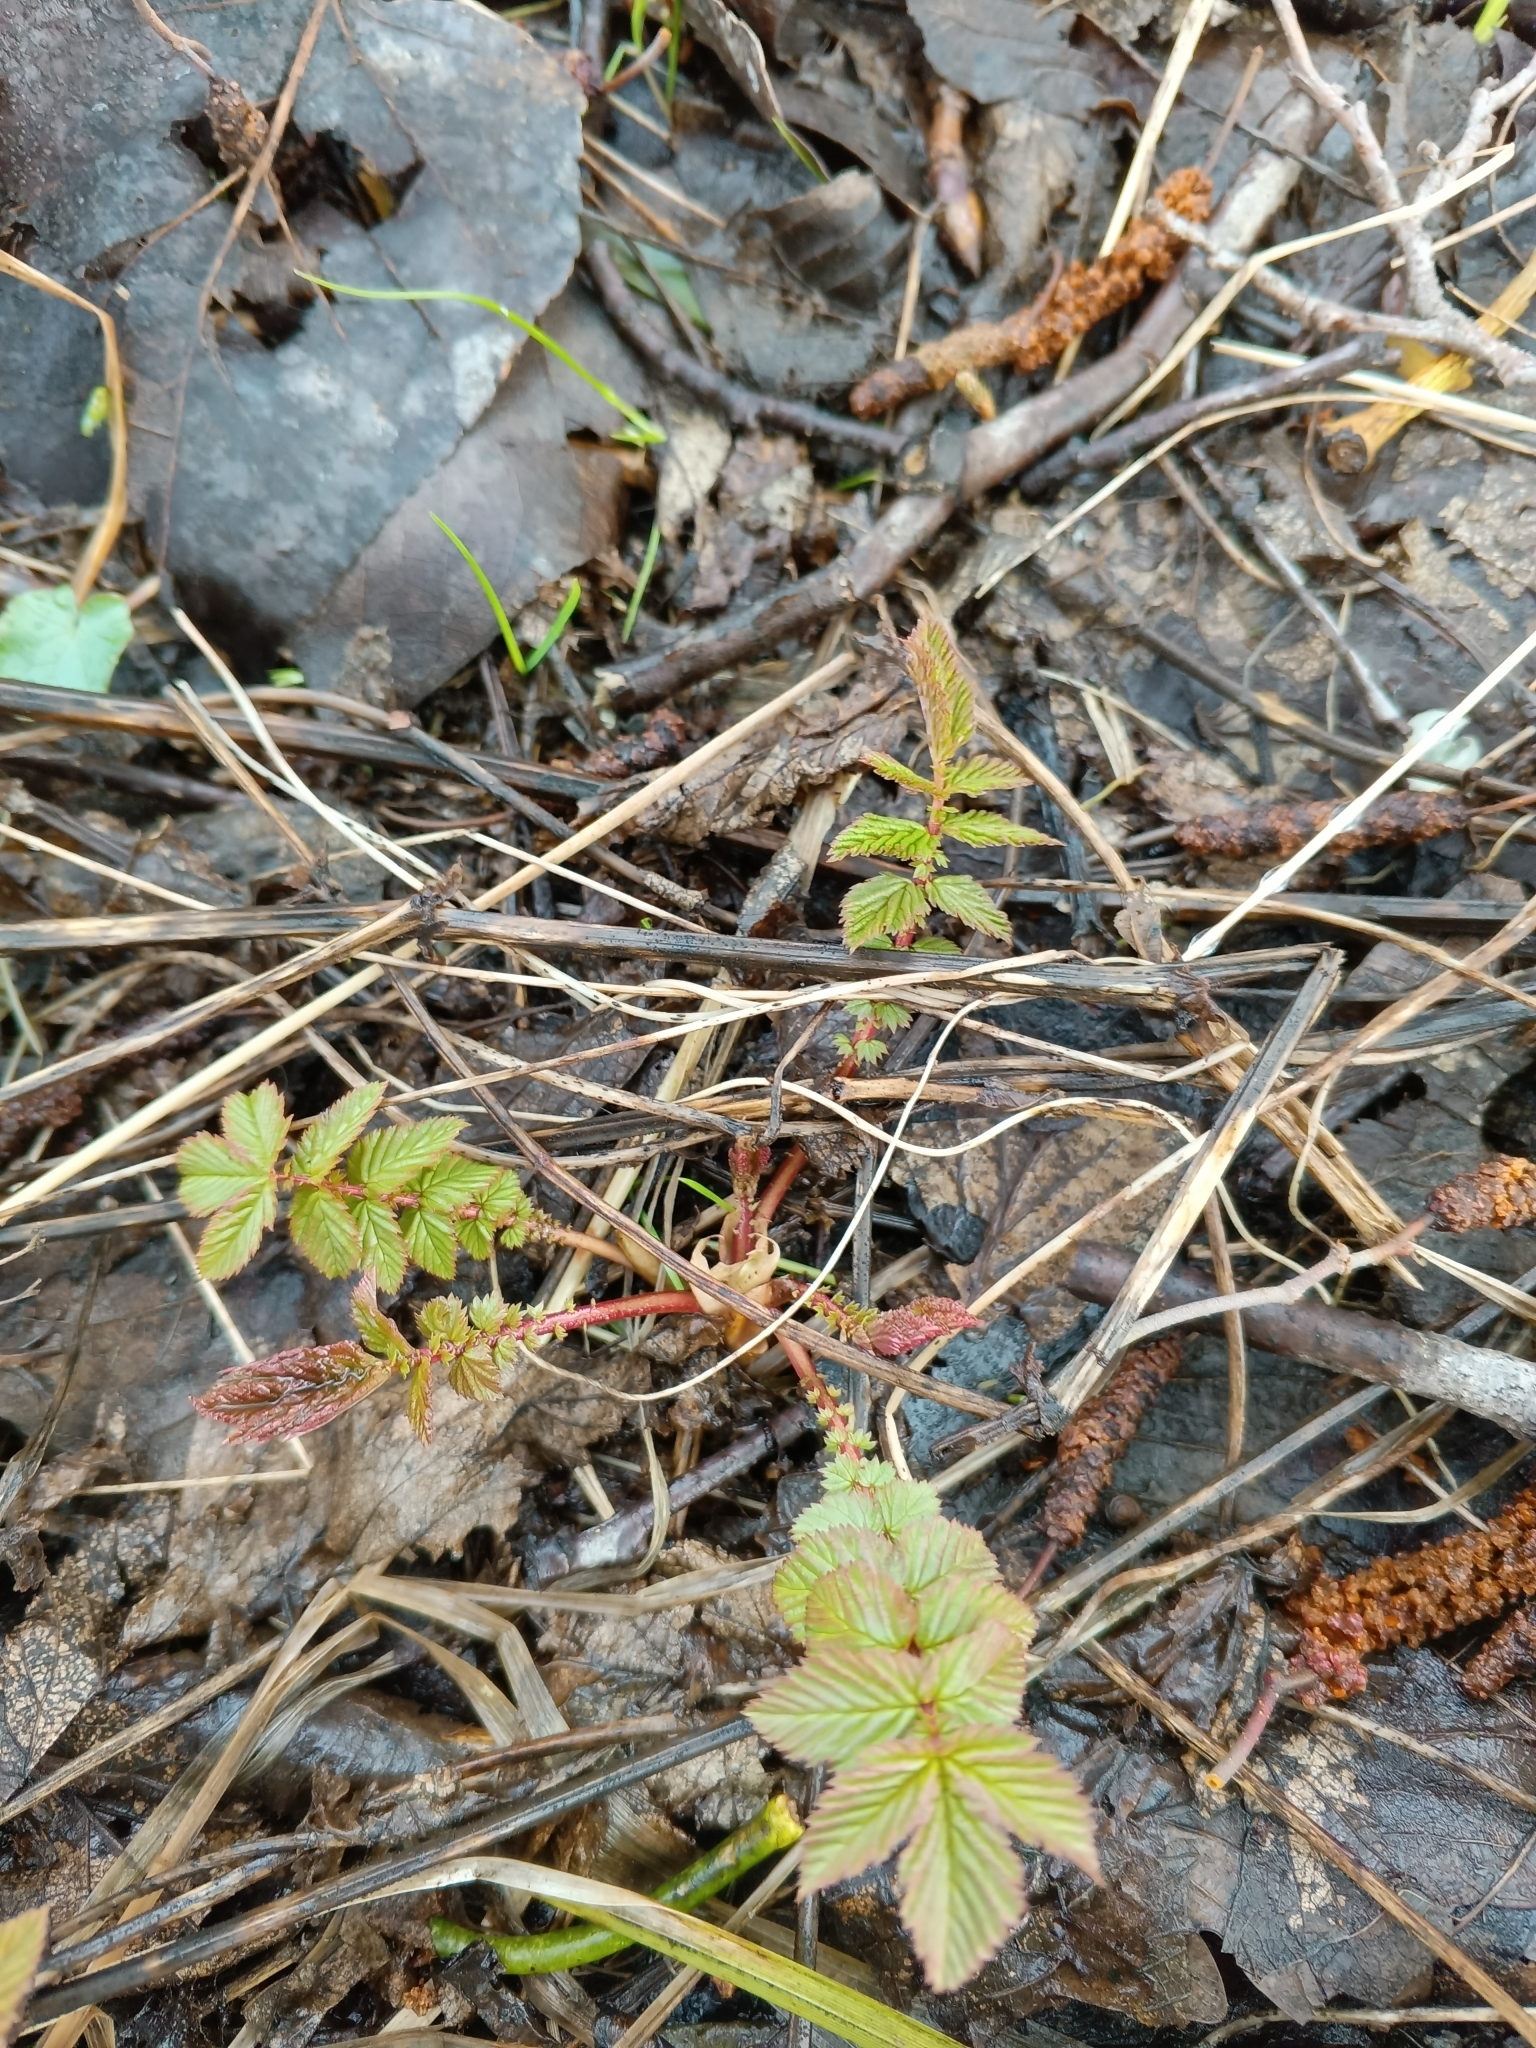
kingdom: Plantae
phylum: Tracheophyta
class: Magnoliopsida
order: Rosales
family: Rosaceae
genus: Filipendula
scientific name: Filipendula ulmaria
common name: Meadowsweet
